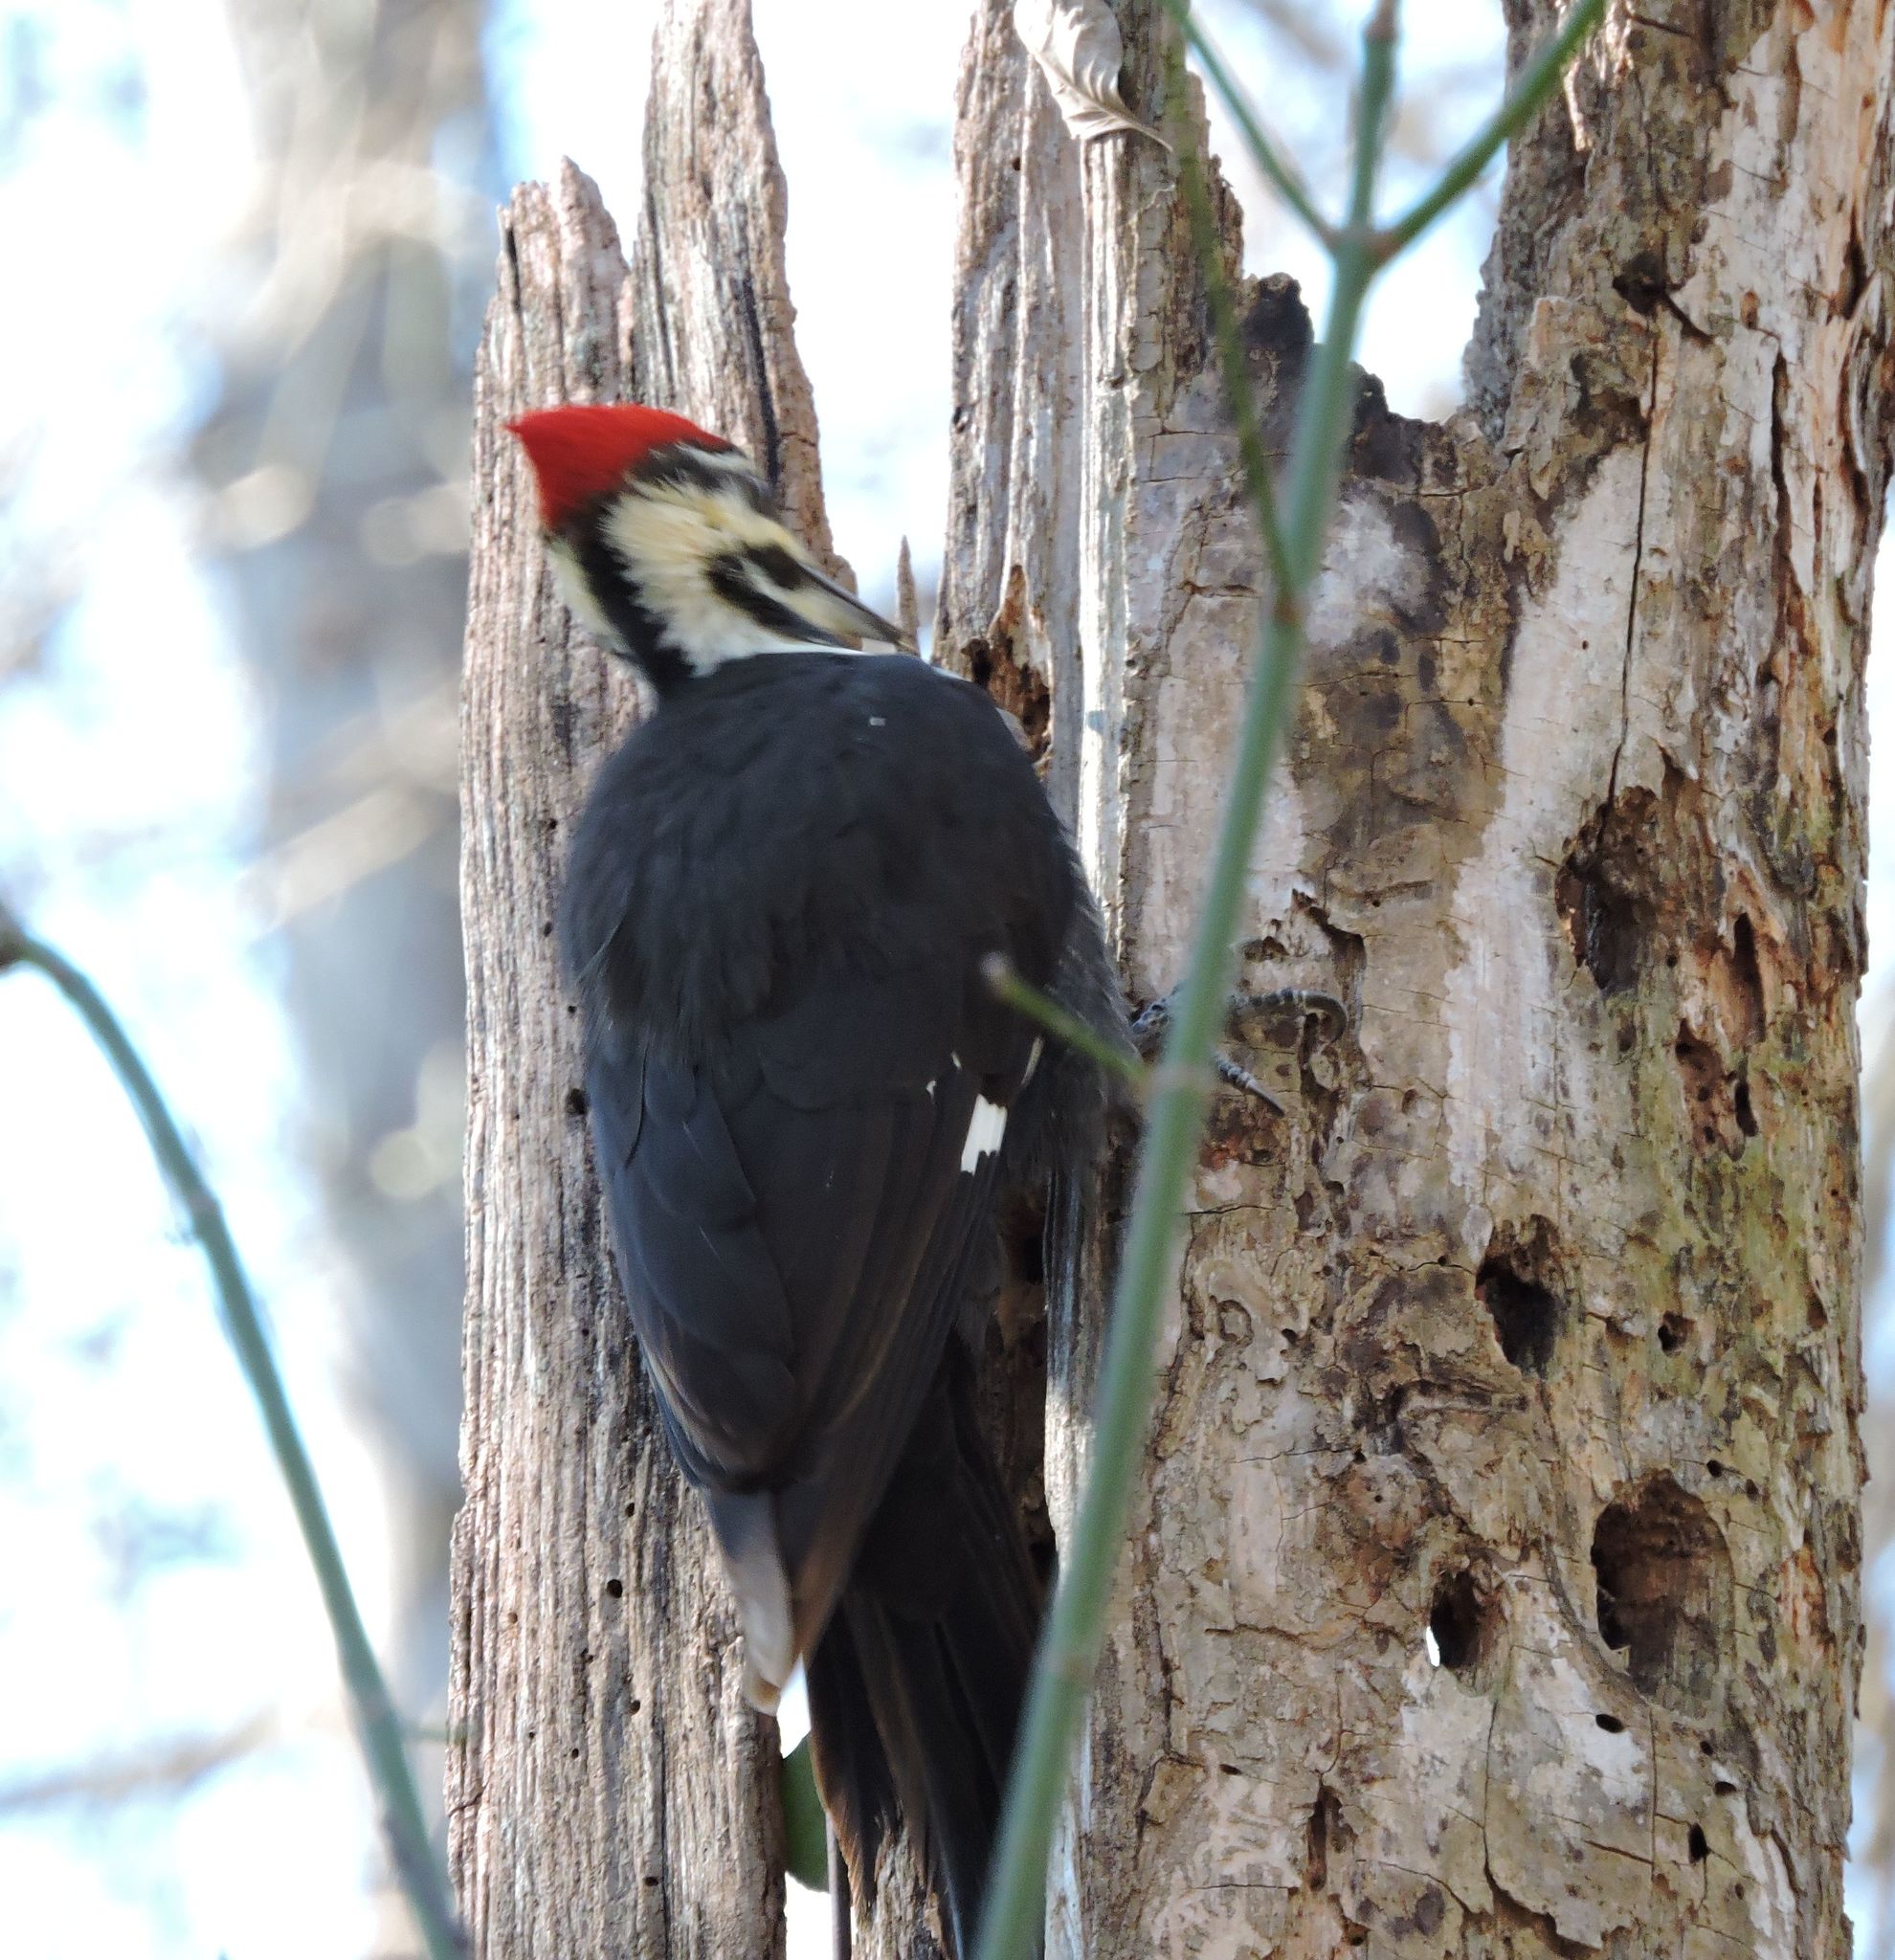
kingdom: Animalia
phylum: Chordata
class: Aves
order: Piciformes
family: Picidae
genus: Dryocopus
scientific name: Dryocopus pileatus
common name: Pileated woodpecker
